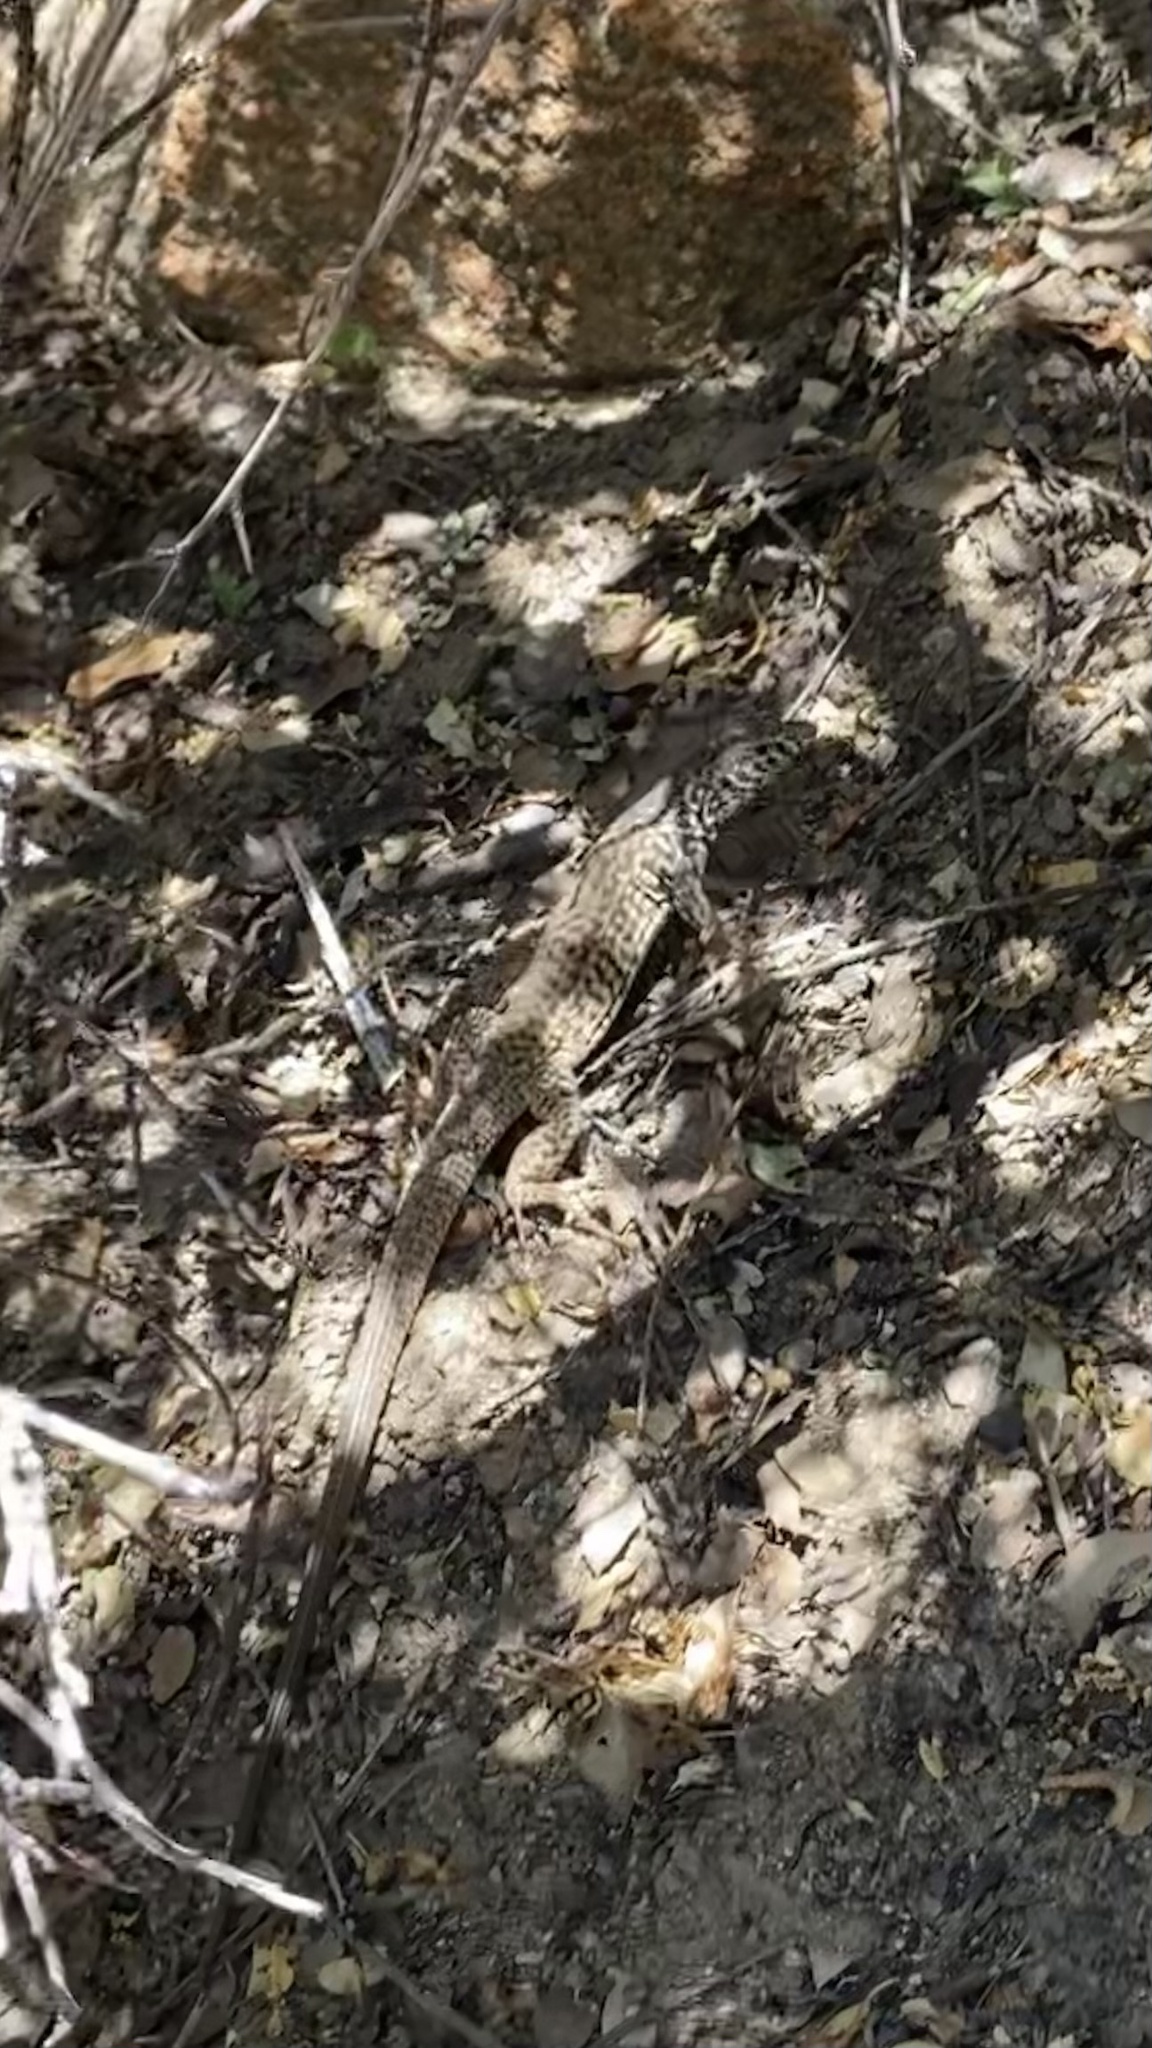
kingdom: Animalia
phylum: Chordata
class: Squamata
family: Teiidae
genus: Aspidoscelis
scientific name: Aspidoscelis tigris
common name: Tiger whiptail
